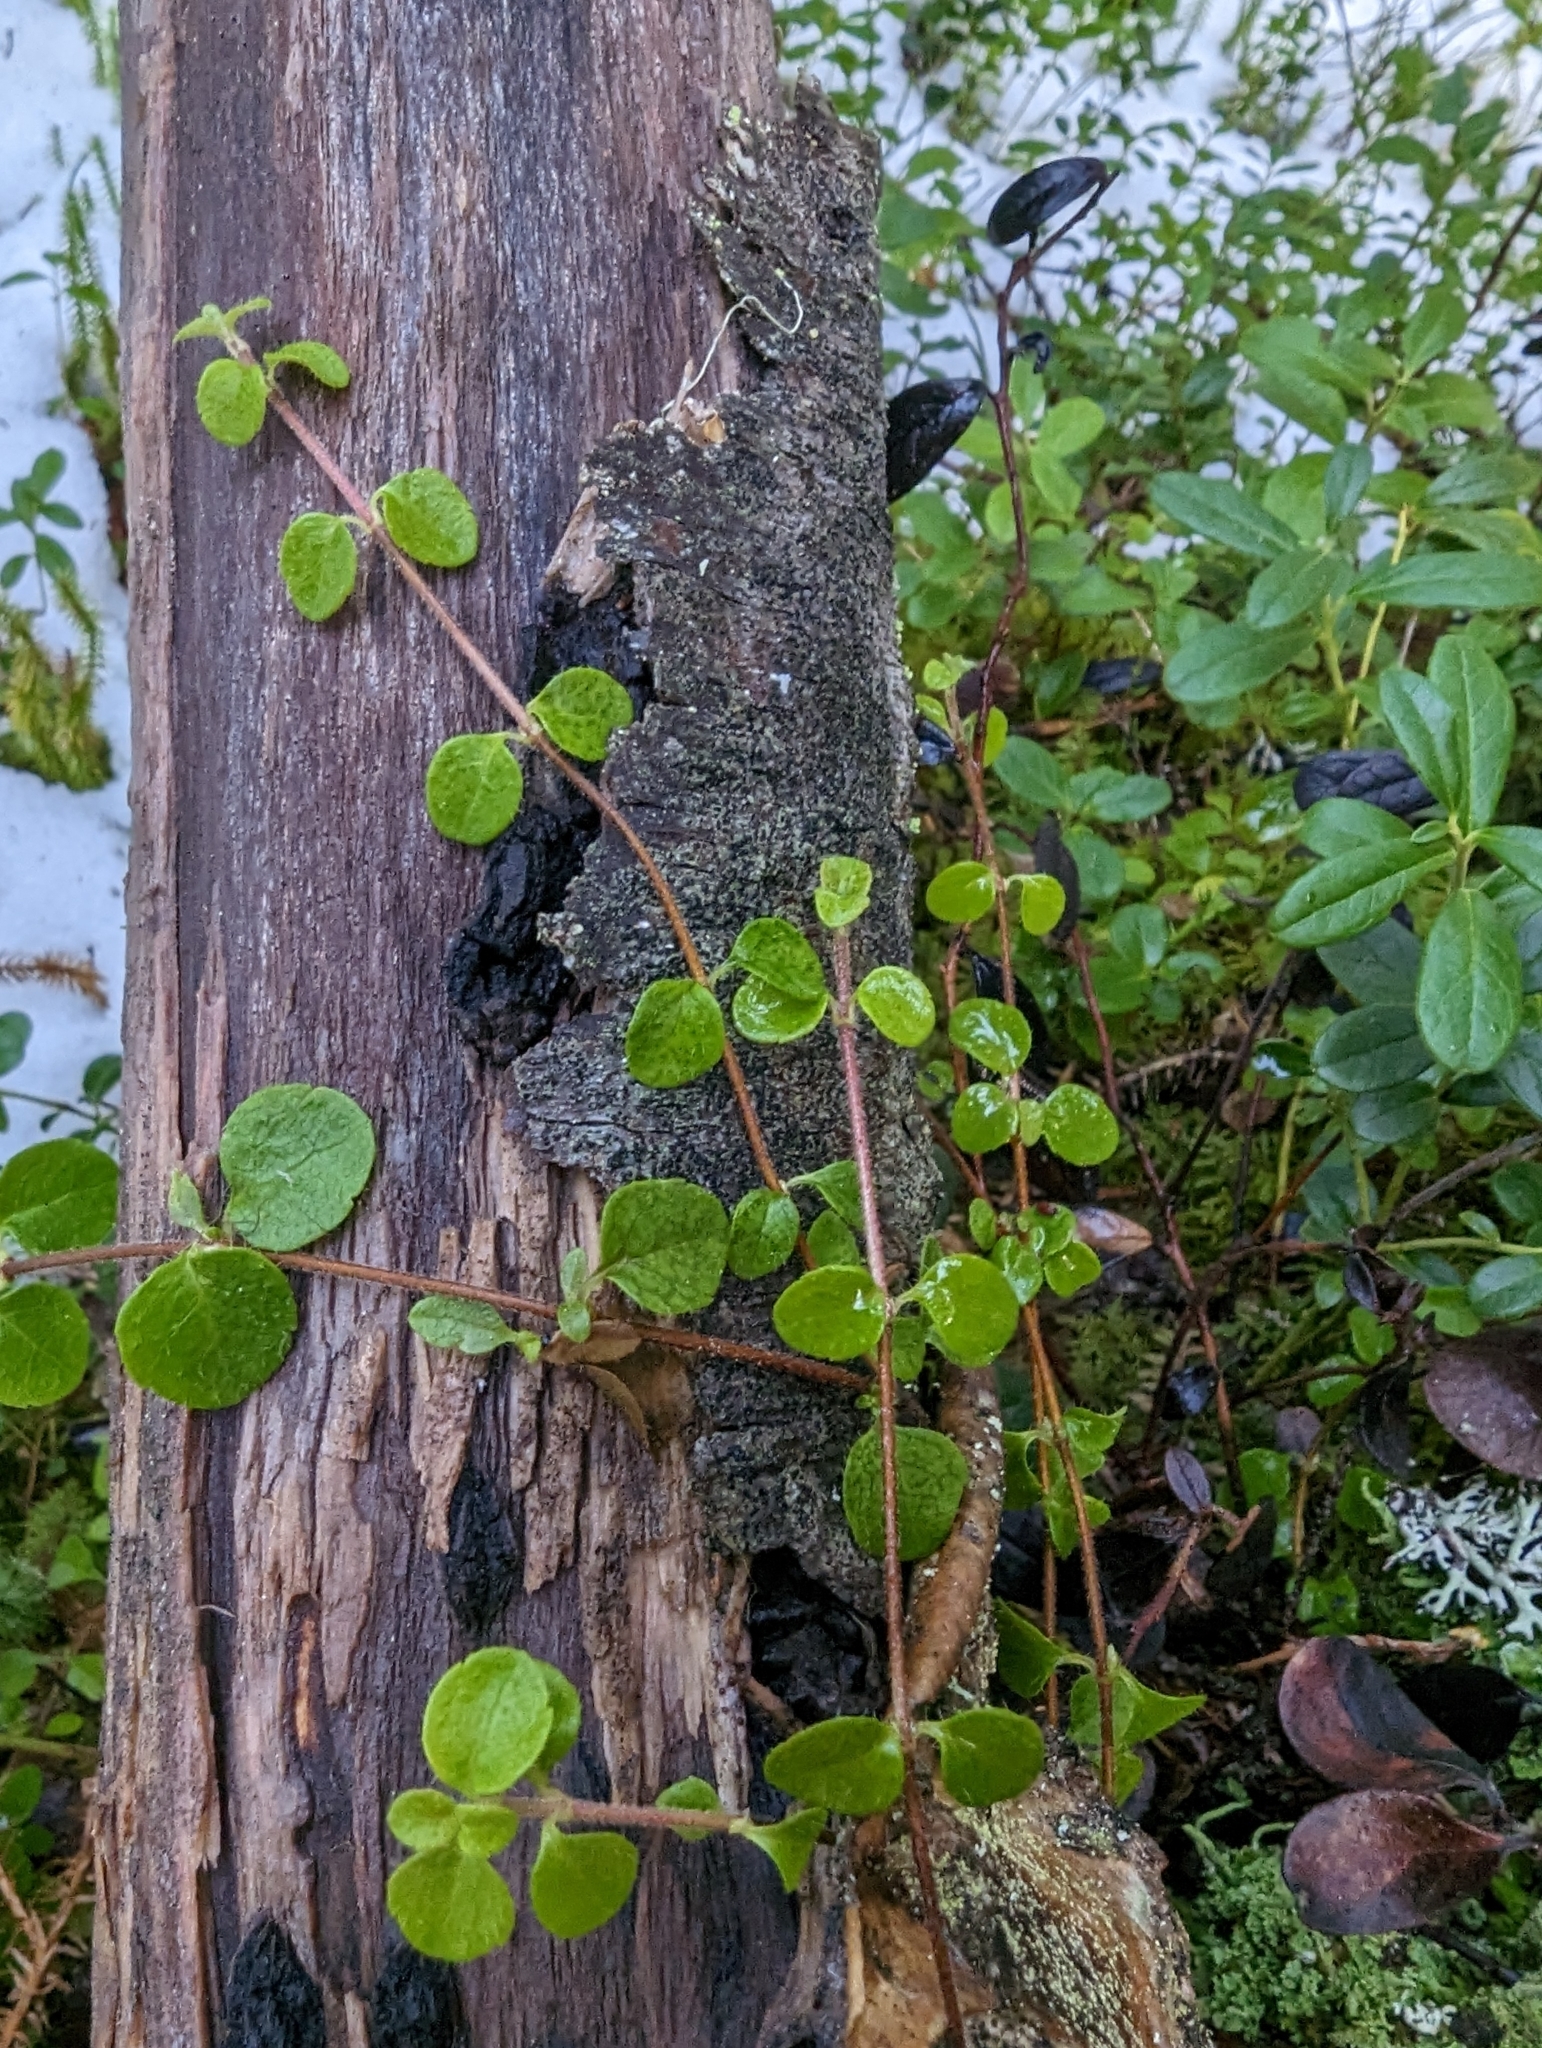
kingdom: Plantae
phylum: Tracheophyta
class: Magnoliopsida
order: Dipsacales
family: Caprifoliaceae
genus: Linnaea
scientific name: Linnaea borealis
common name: Twinflower
